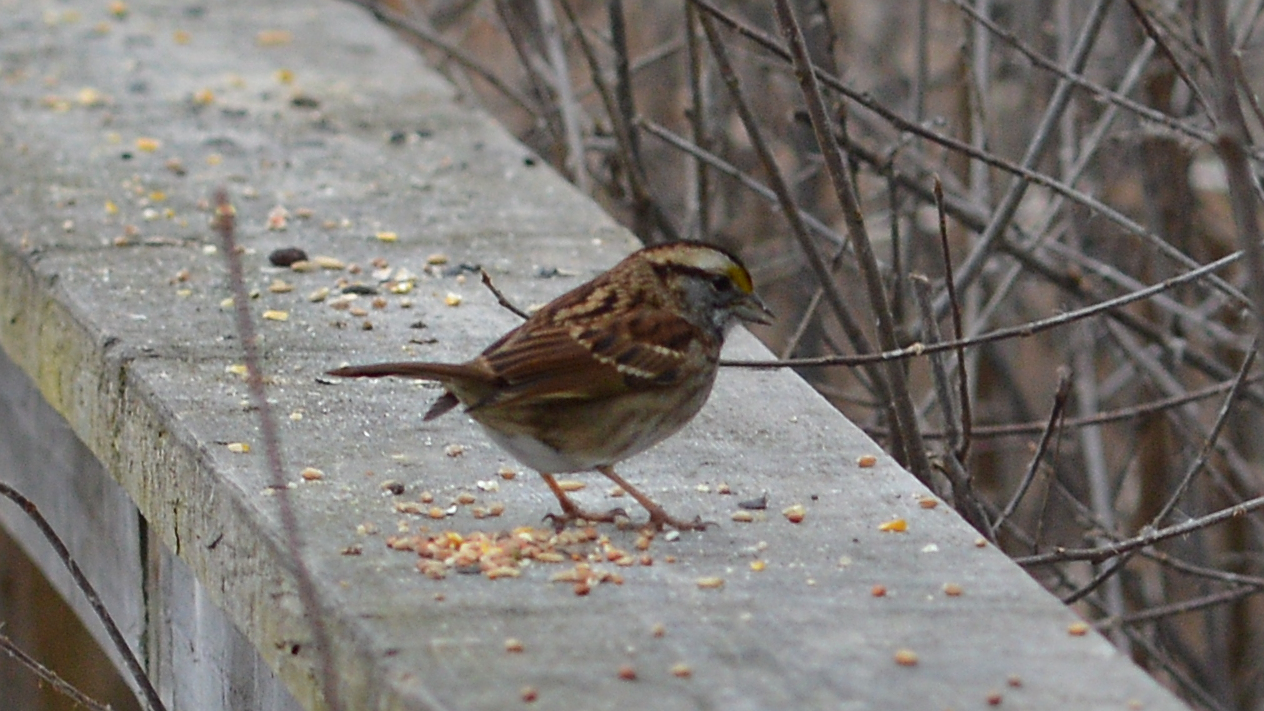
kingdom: Animalia
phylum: Chordata
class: Aves
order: Passeriformes
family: Passerellidae
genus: Zonotrichia
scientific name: Zonotrichia albicollis
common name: White-throated sparrow
